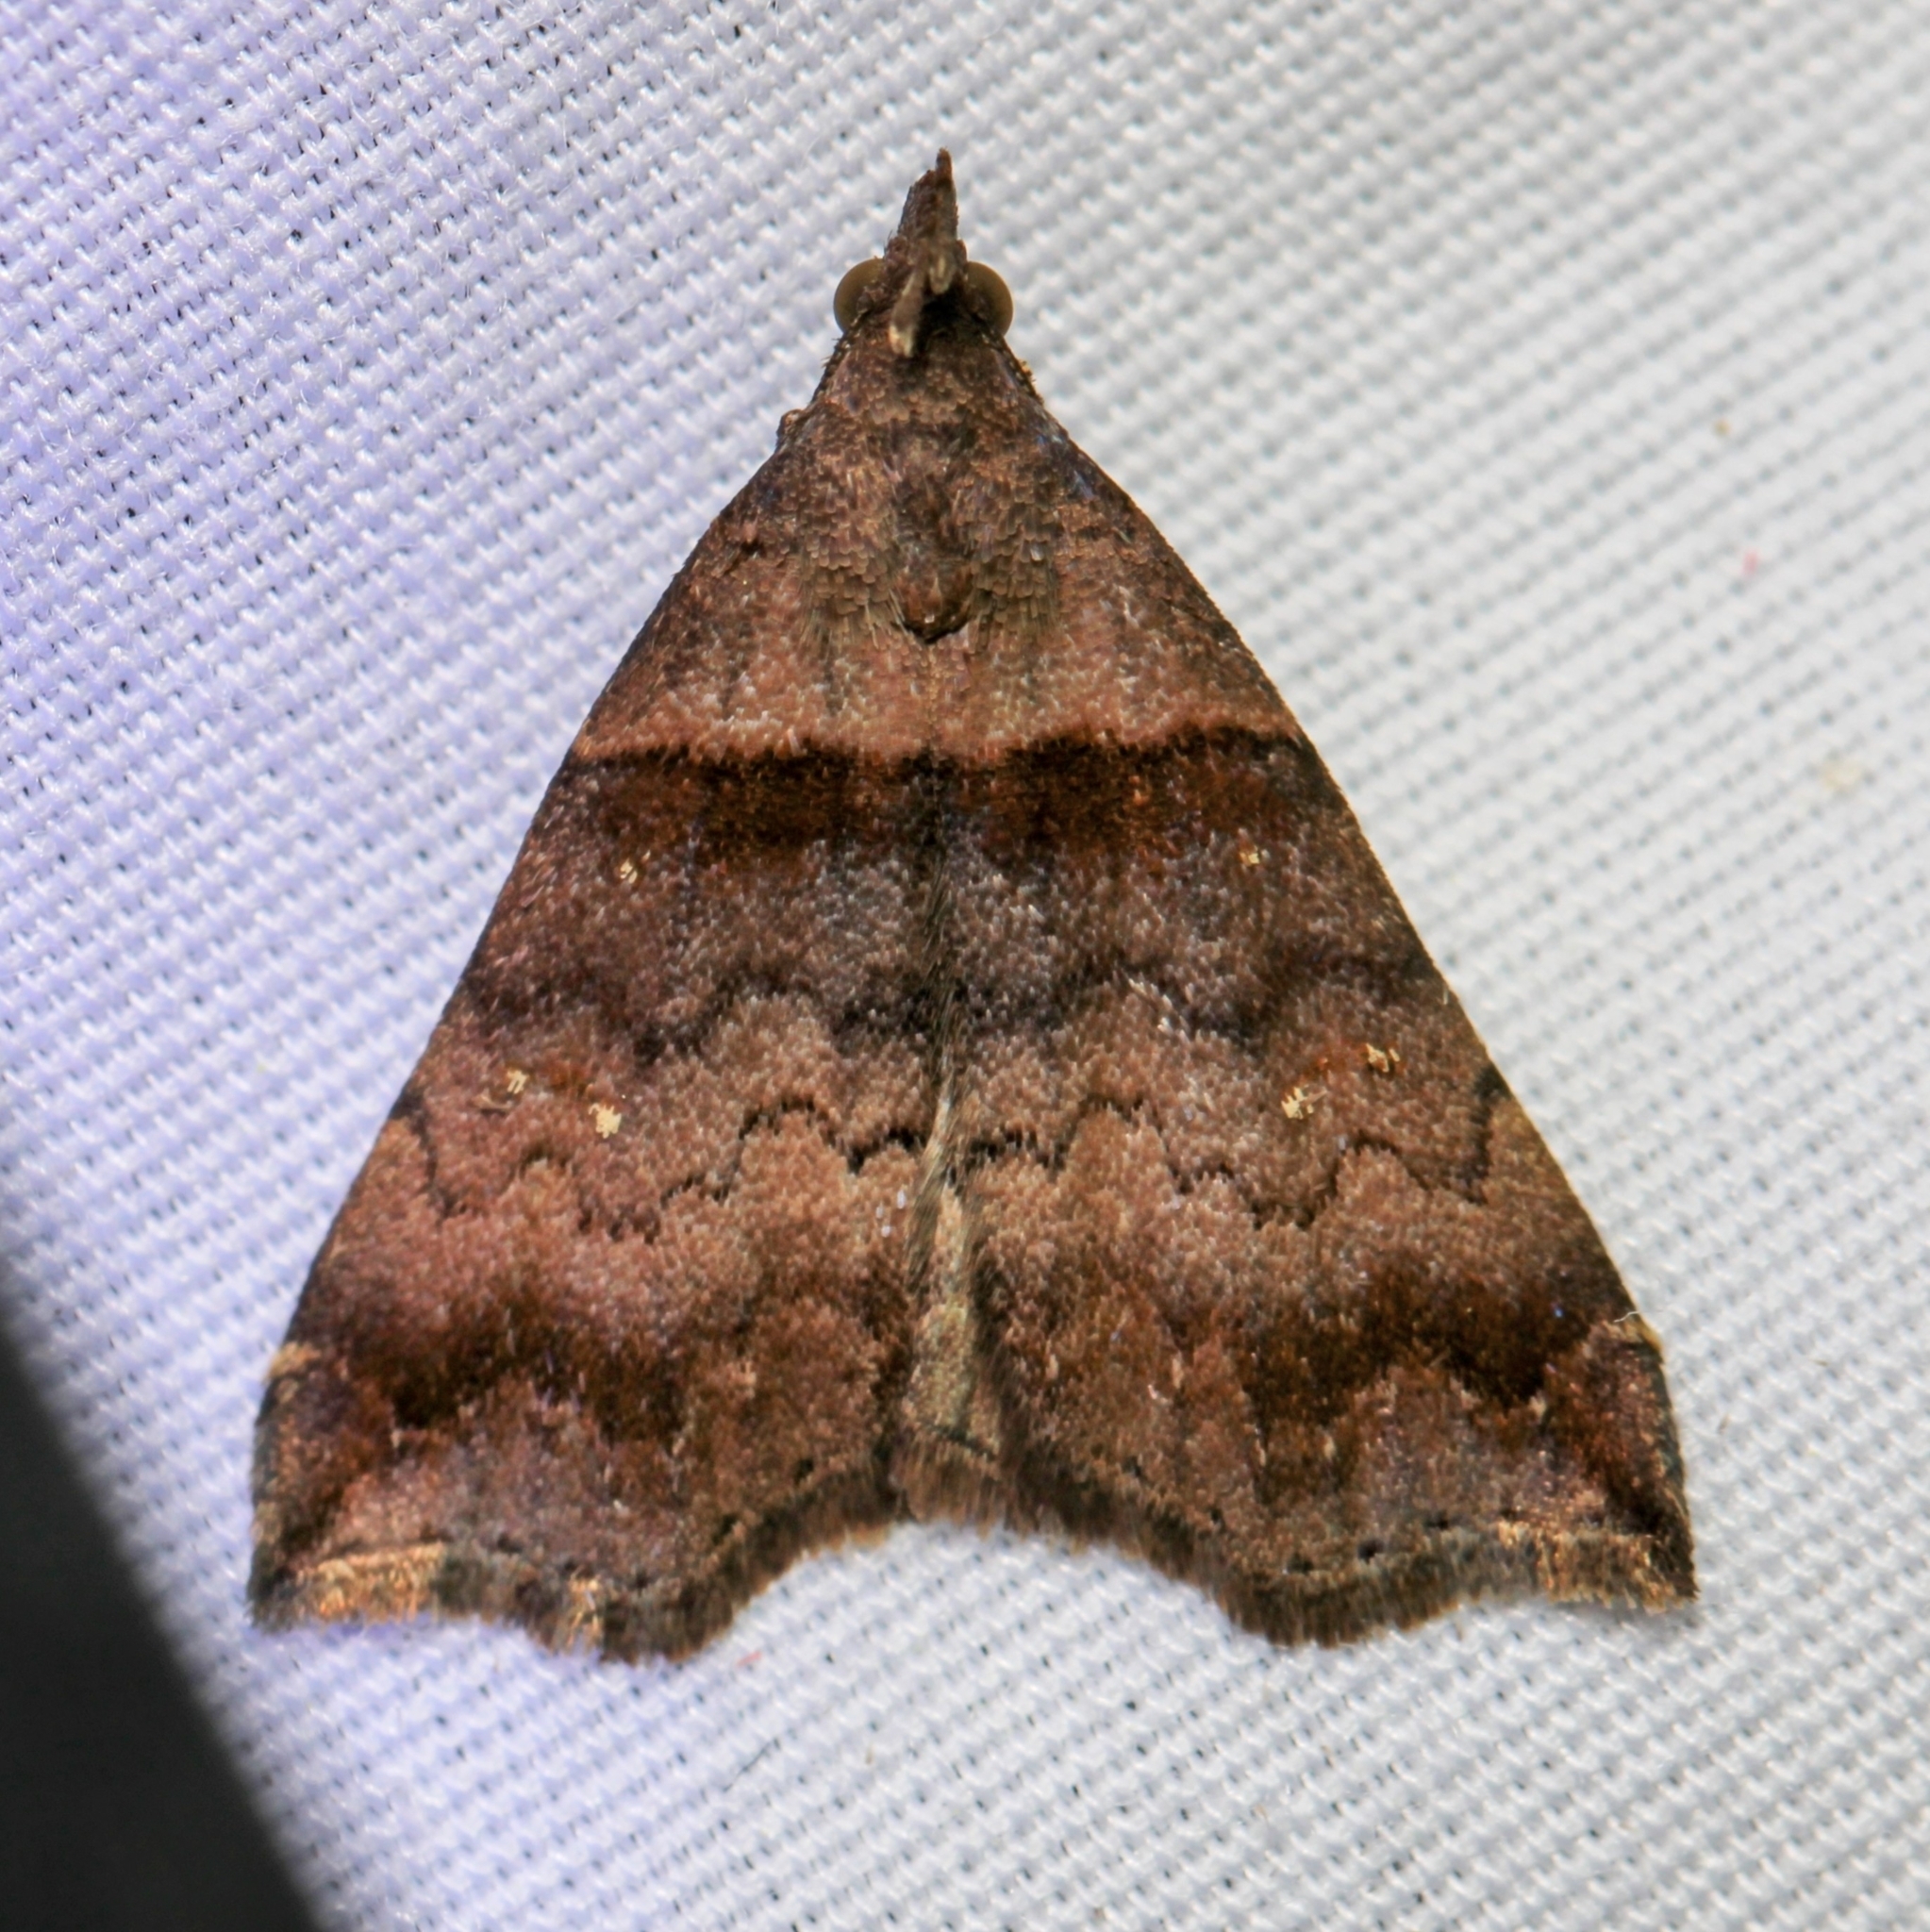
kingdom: Animalia
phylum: Arthropoda
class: Insecta
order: Lepidoptera
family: Erebidae
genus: Lascoria
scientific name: Lascoria ambigualis
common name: Ambiguous moth
